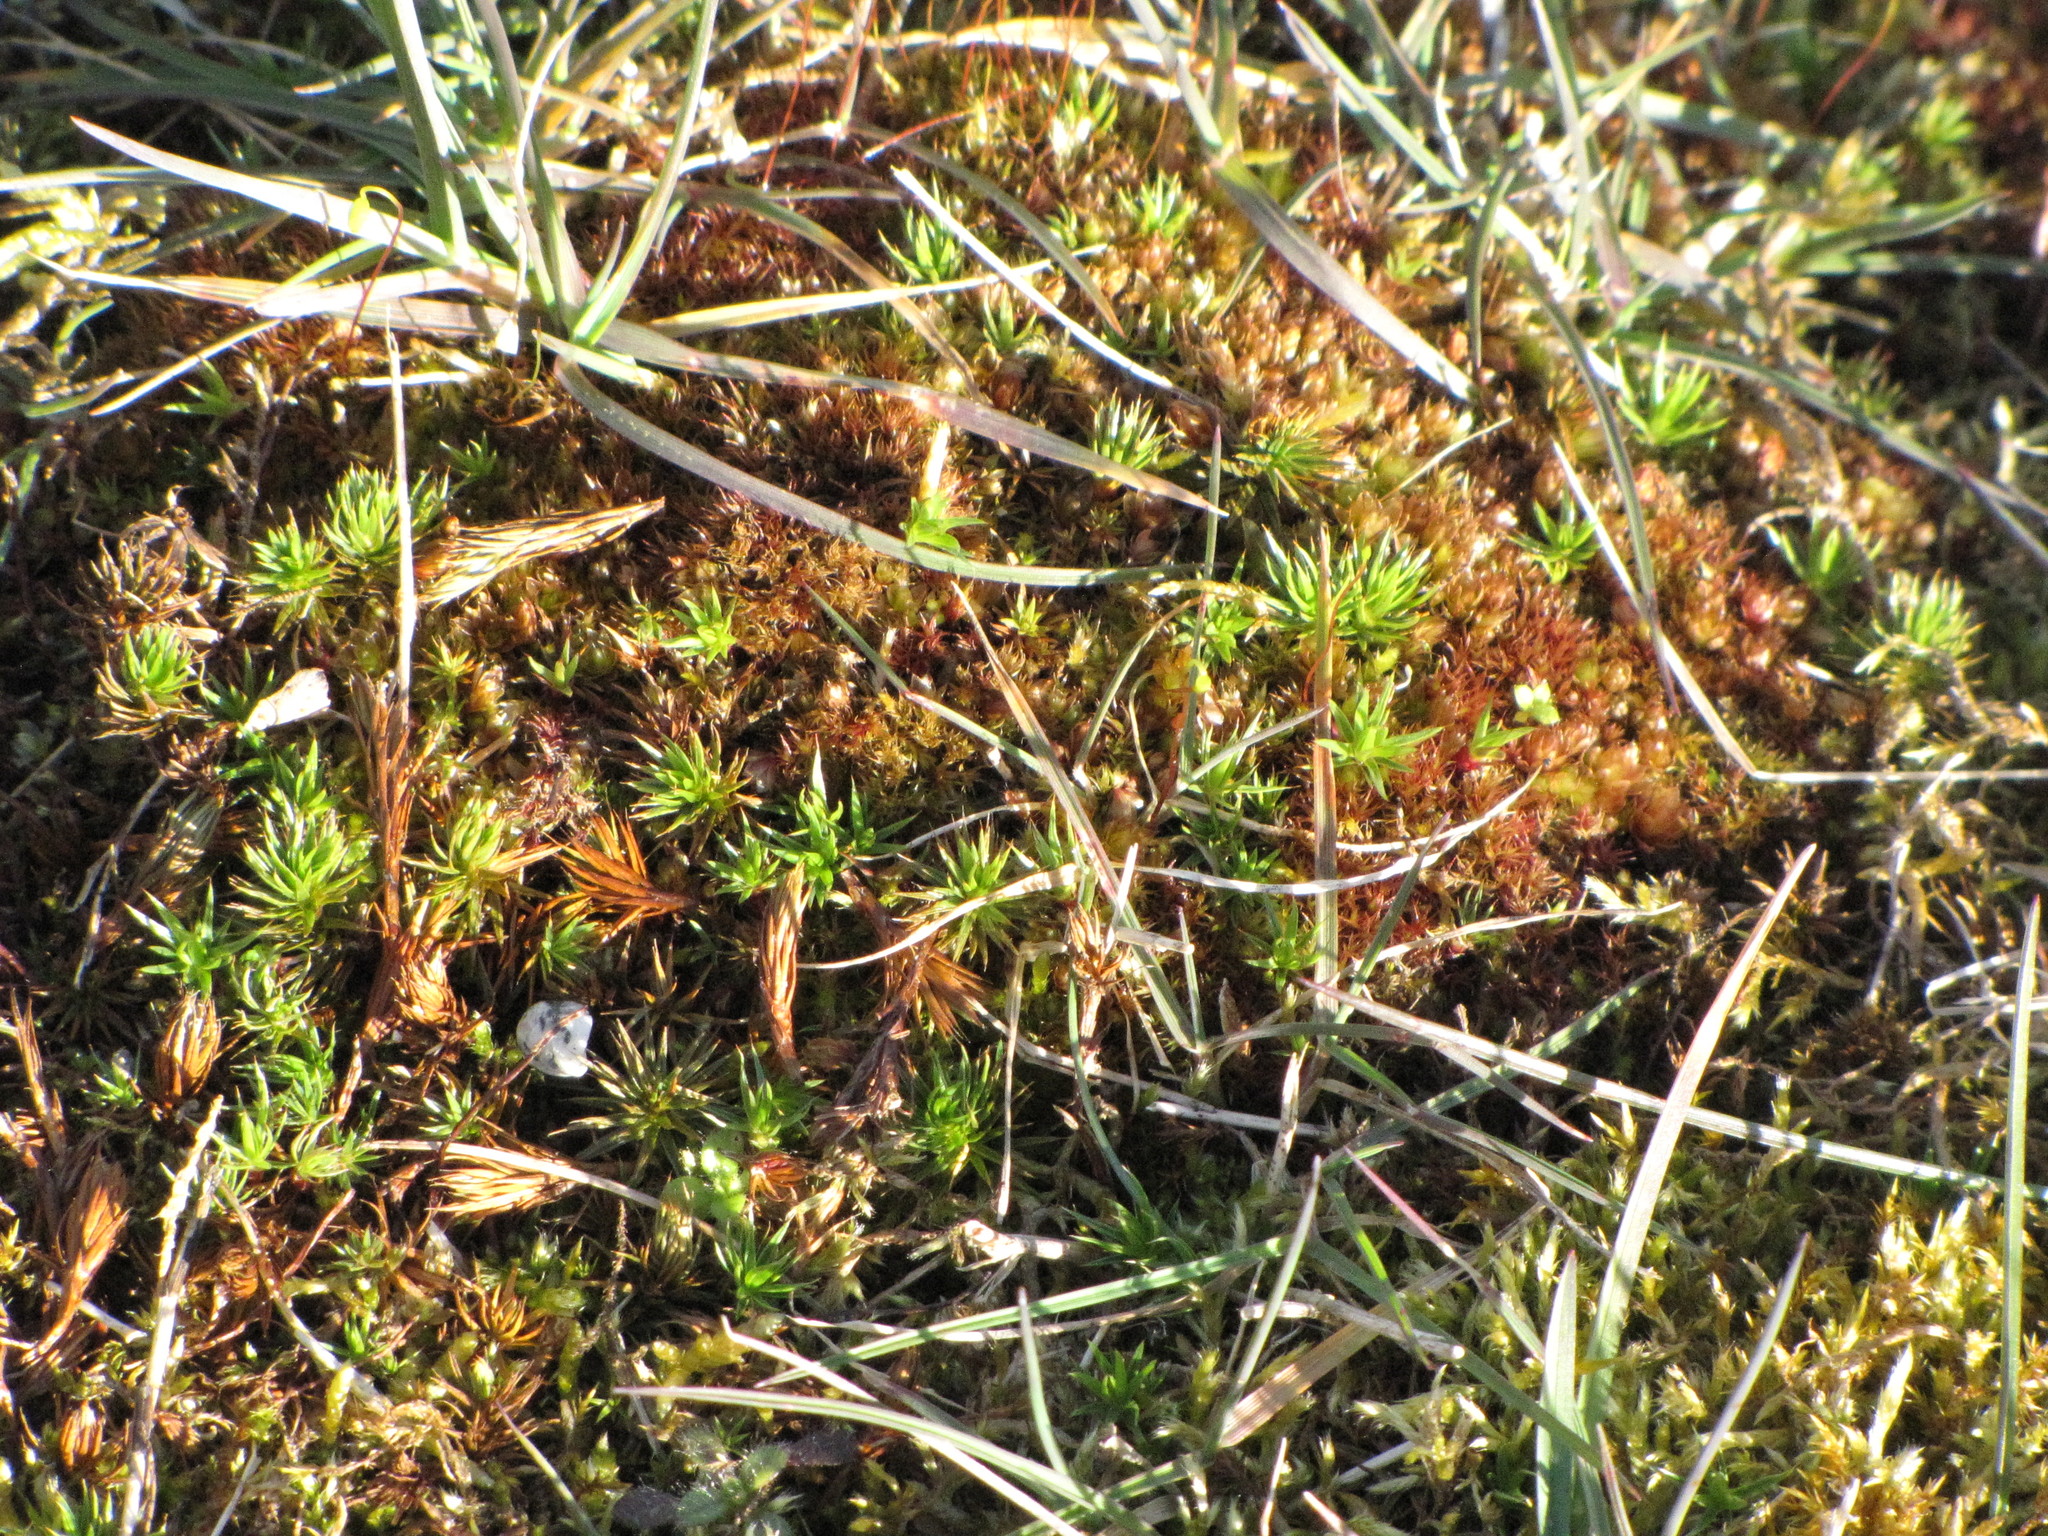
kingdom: Plantae
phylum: Bryophyta
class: Polytrichopsida
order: Polytrichales
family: Polytrichaceae
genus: Polytrichum
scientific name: Polytrichum juniperinum
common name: Juniper haircap moss
